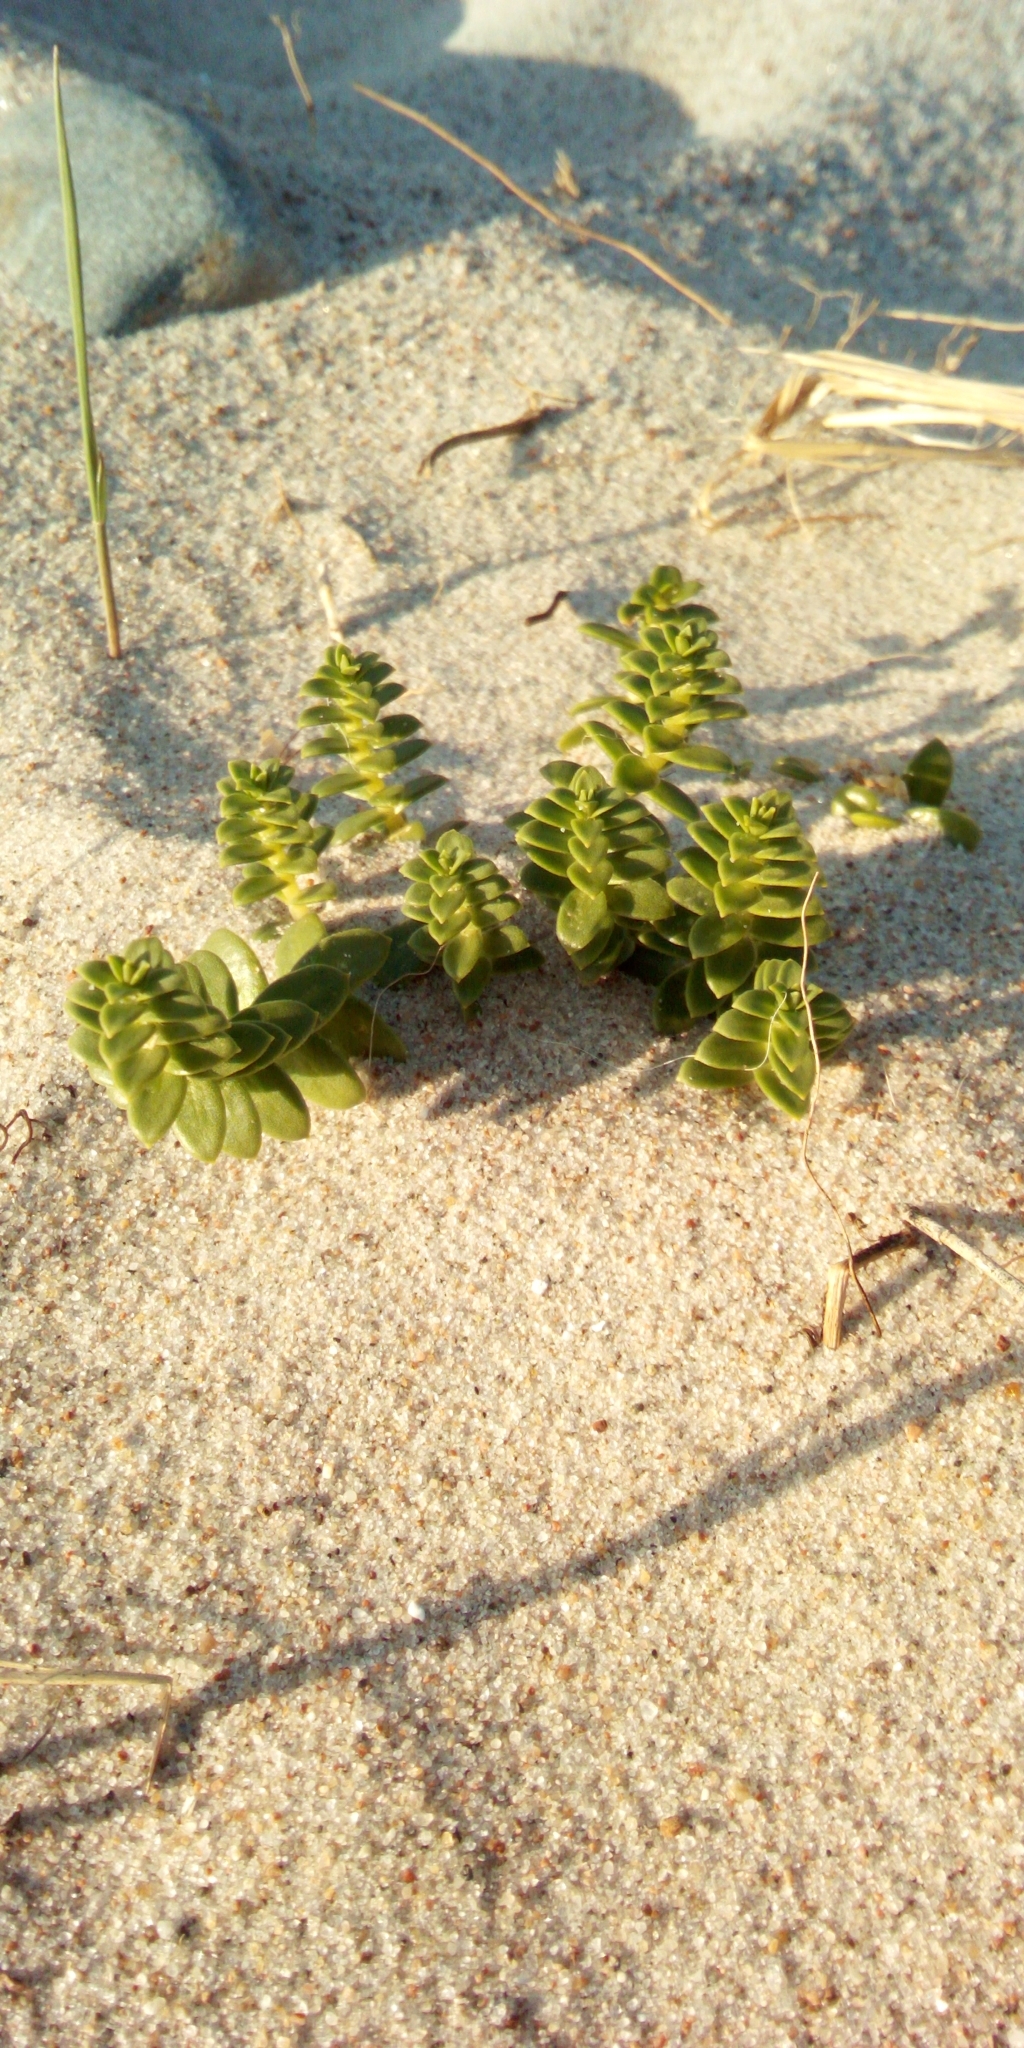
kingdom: Plantae
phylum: Tracheophyta
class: Magnoliopsida
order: Caryophyllales
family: Caryophyllaceae
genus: Honckenya
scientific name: Honckenya peploides
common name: Sea sandwort
